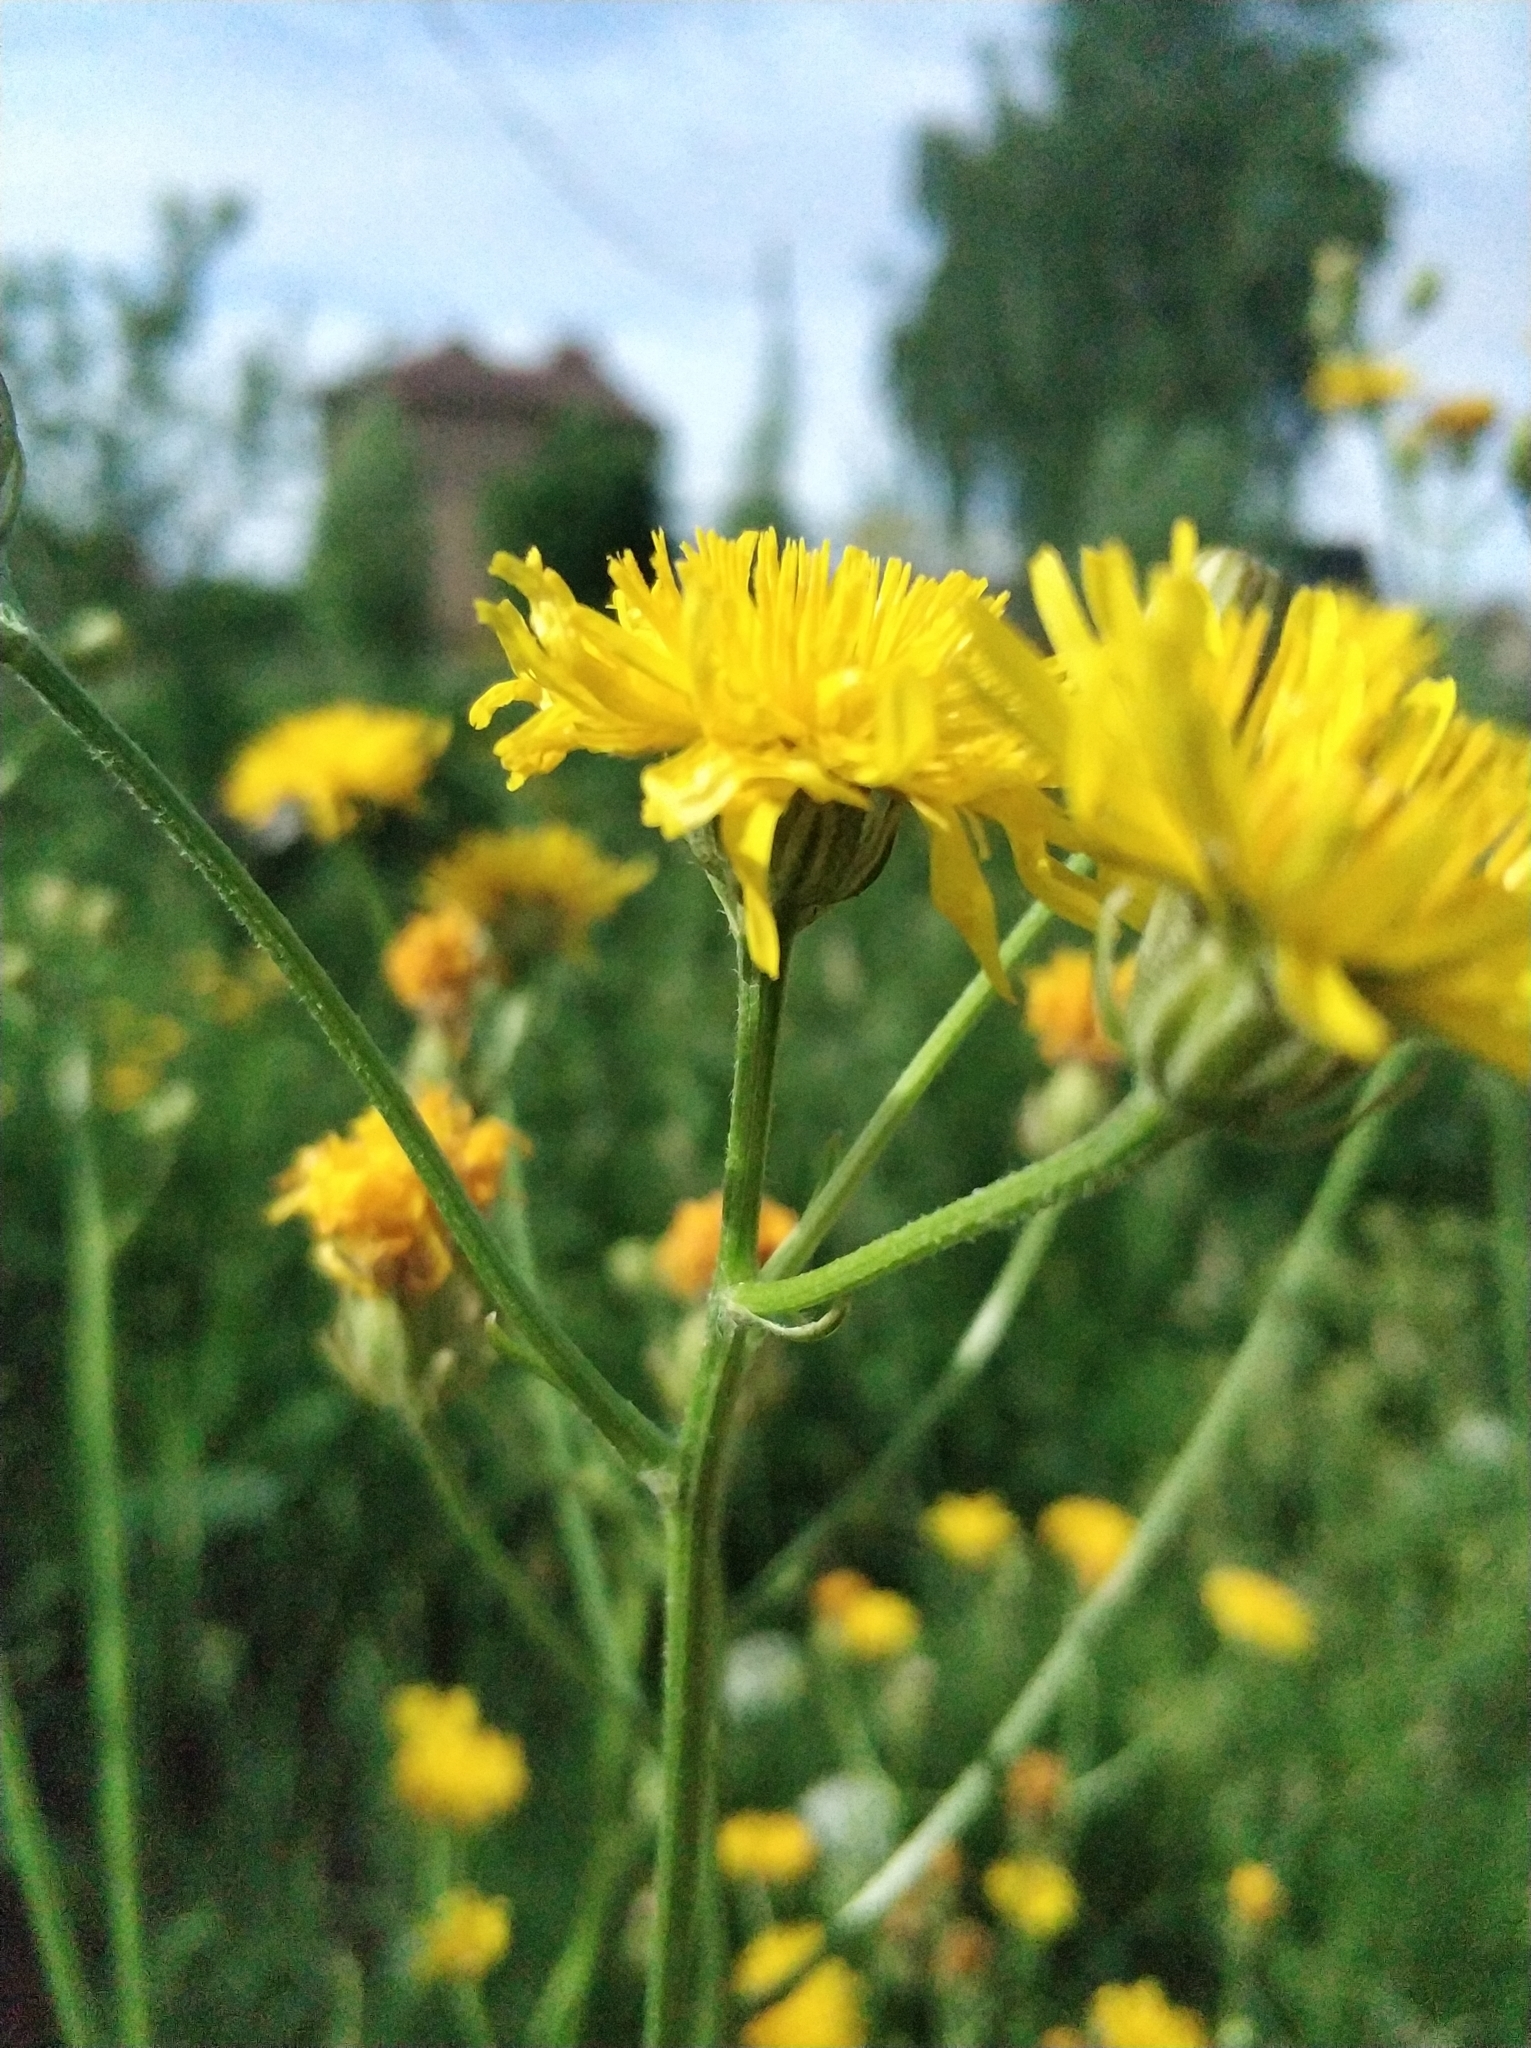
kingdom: Plantae
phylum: Tracheophyta
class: Magnoliopsida
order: Asterales
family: Asteraceae
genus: Crepis
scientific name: Crepis biennis
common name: Rough hawk's-beard
